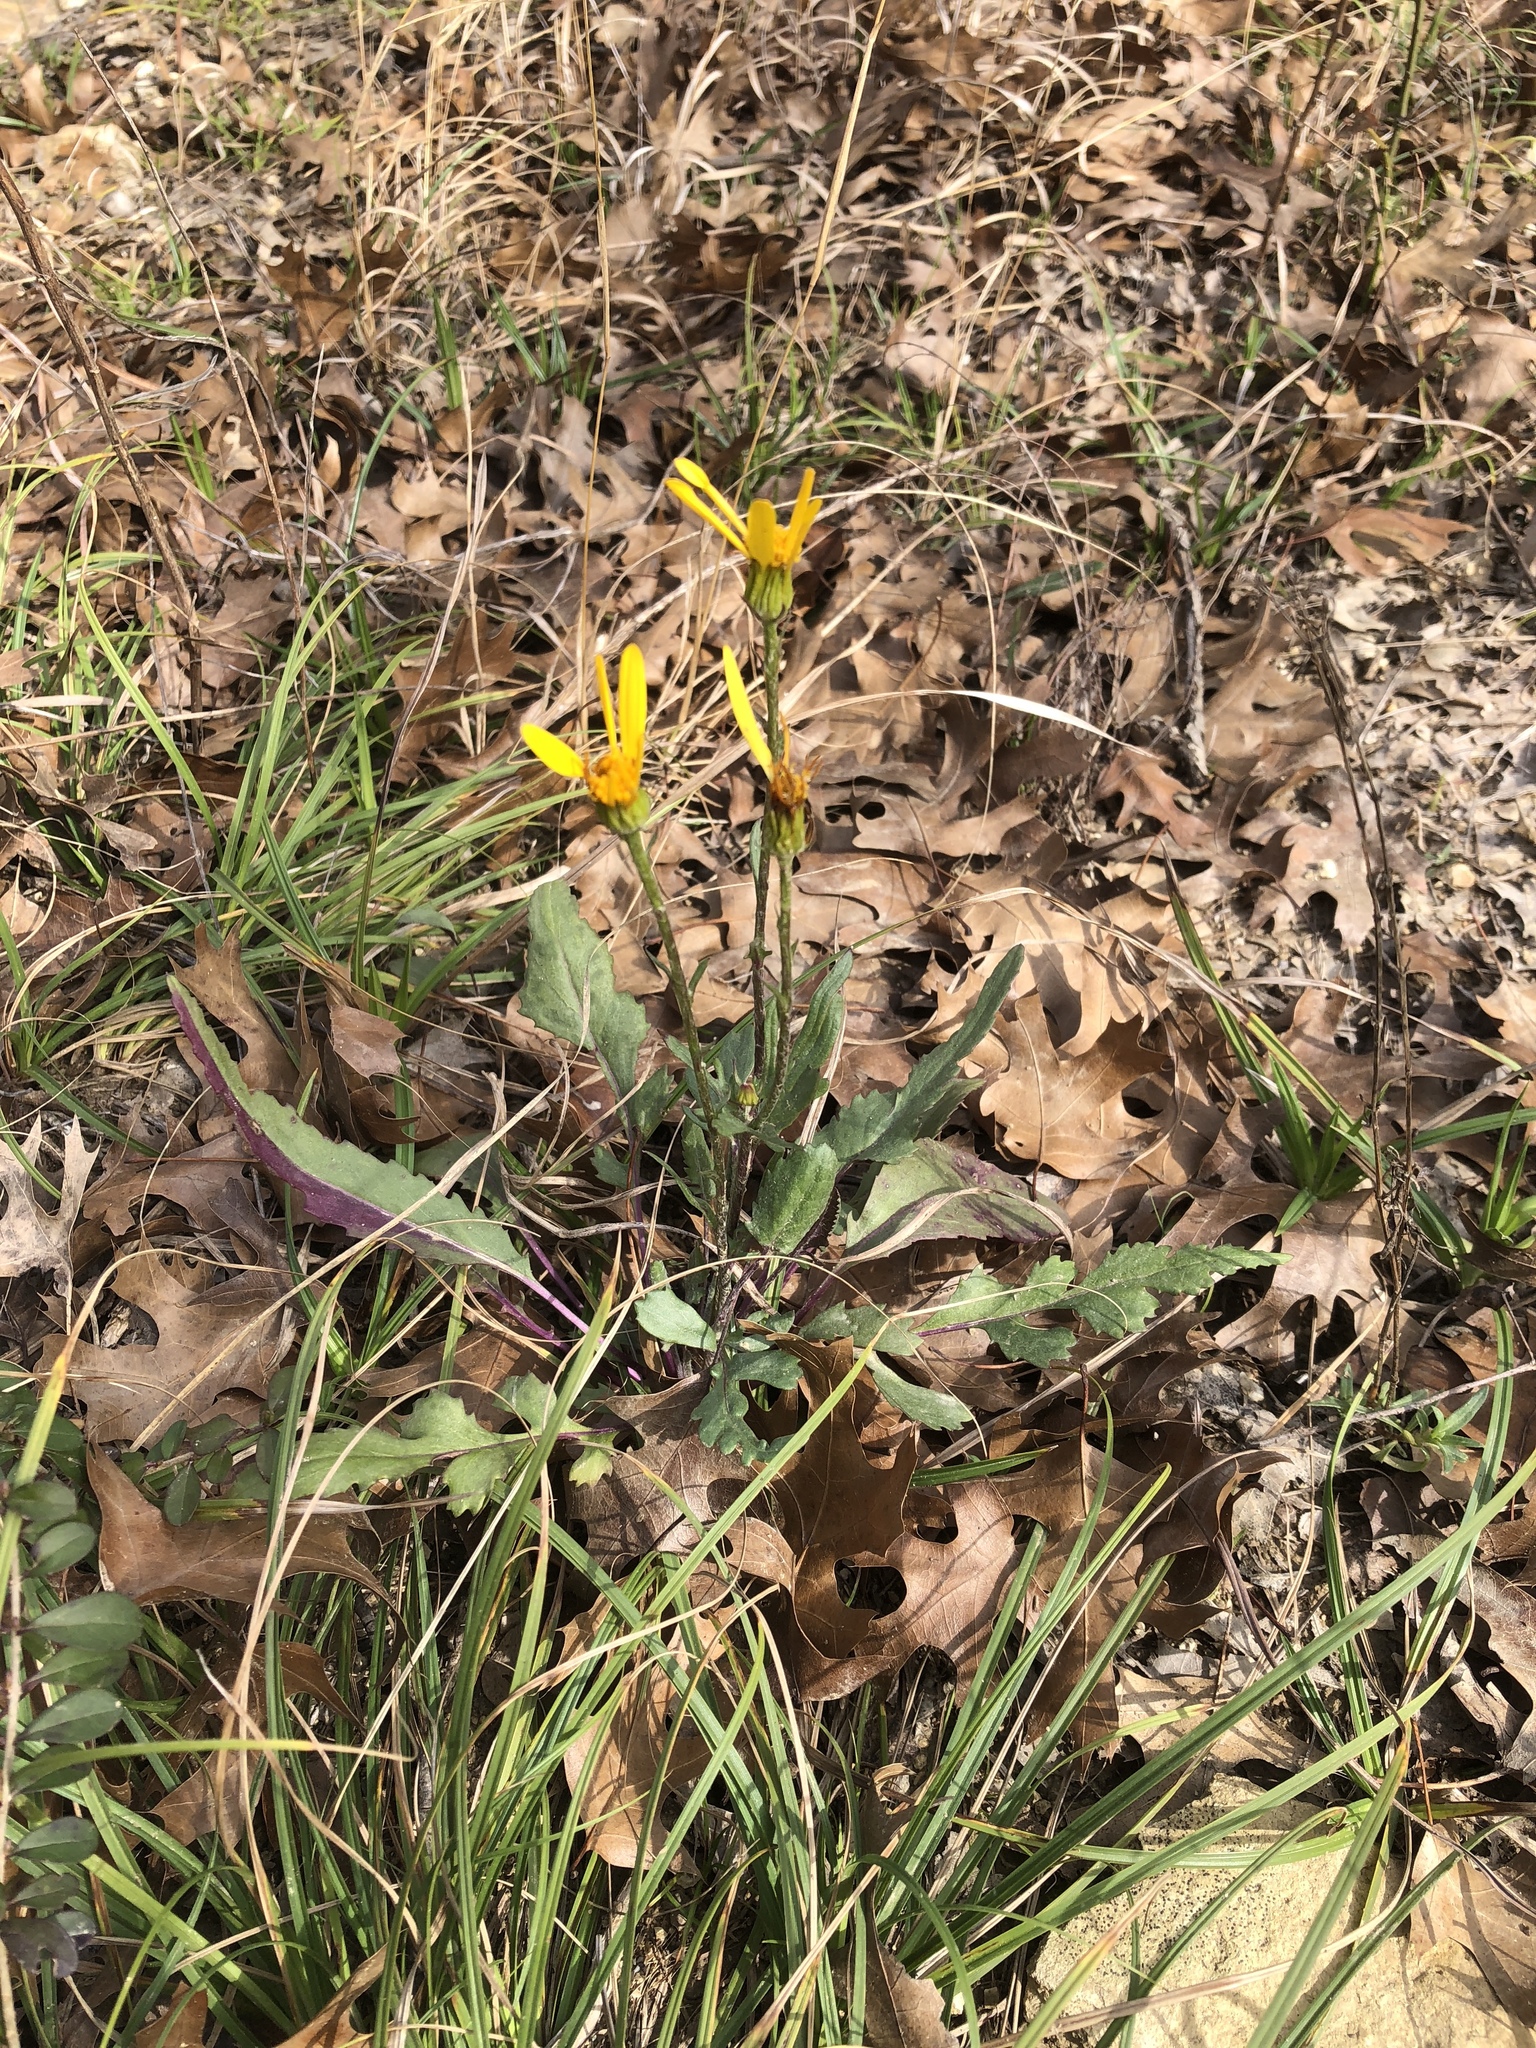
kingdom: Plantae
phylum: Tracheophyta
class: Magnoliopsida
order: Asterales
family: Asteraceae
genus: Packera
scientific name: Packera plattensis
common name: Prairie groundsel
